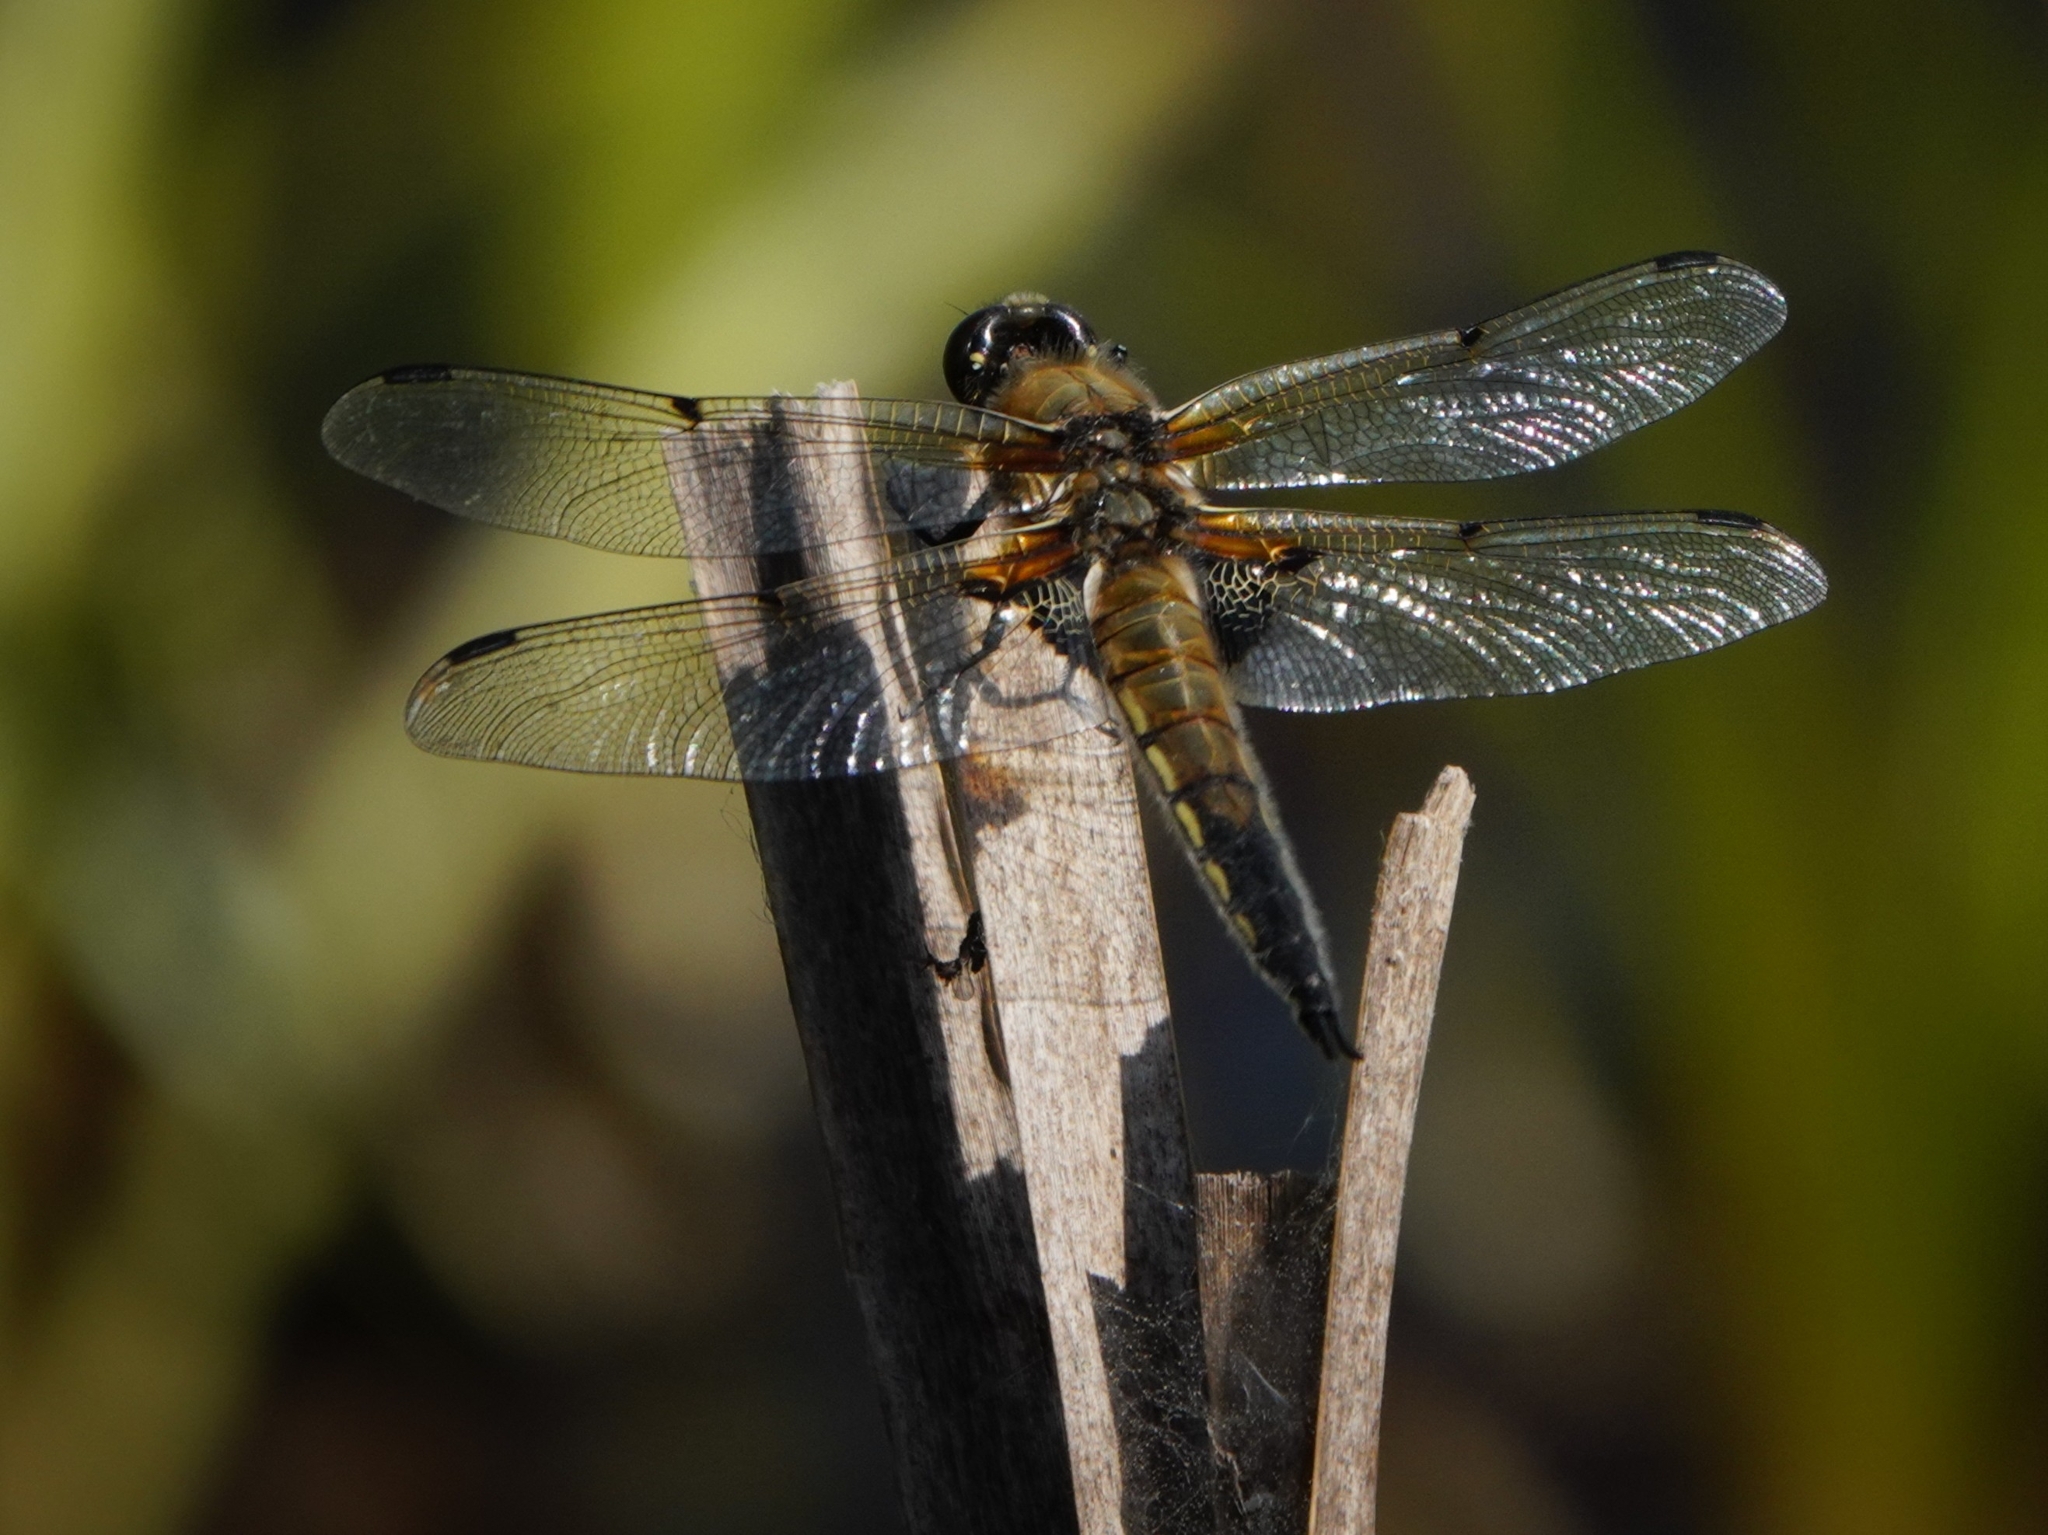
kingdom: Animalia
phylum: Arthropoda
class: Insecta
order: Odonata
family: Libellulidae
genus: Libellula
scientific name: Libellula quadrimaculata
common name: Four-spotted chaser
